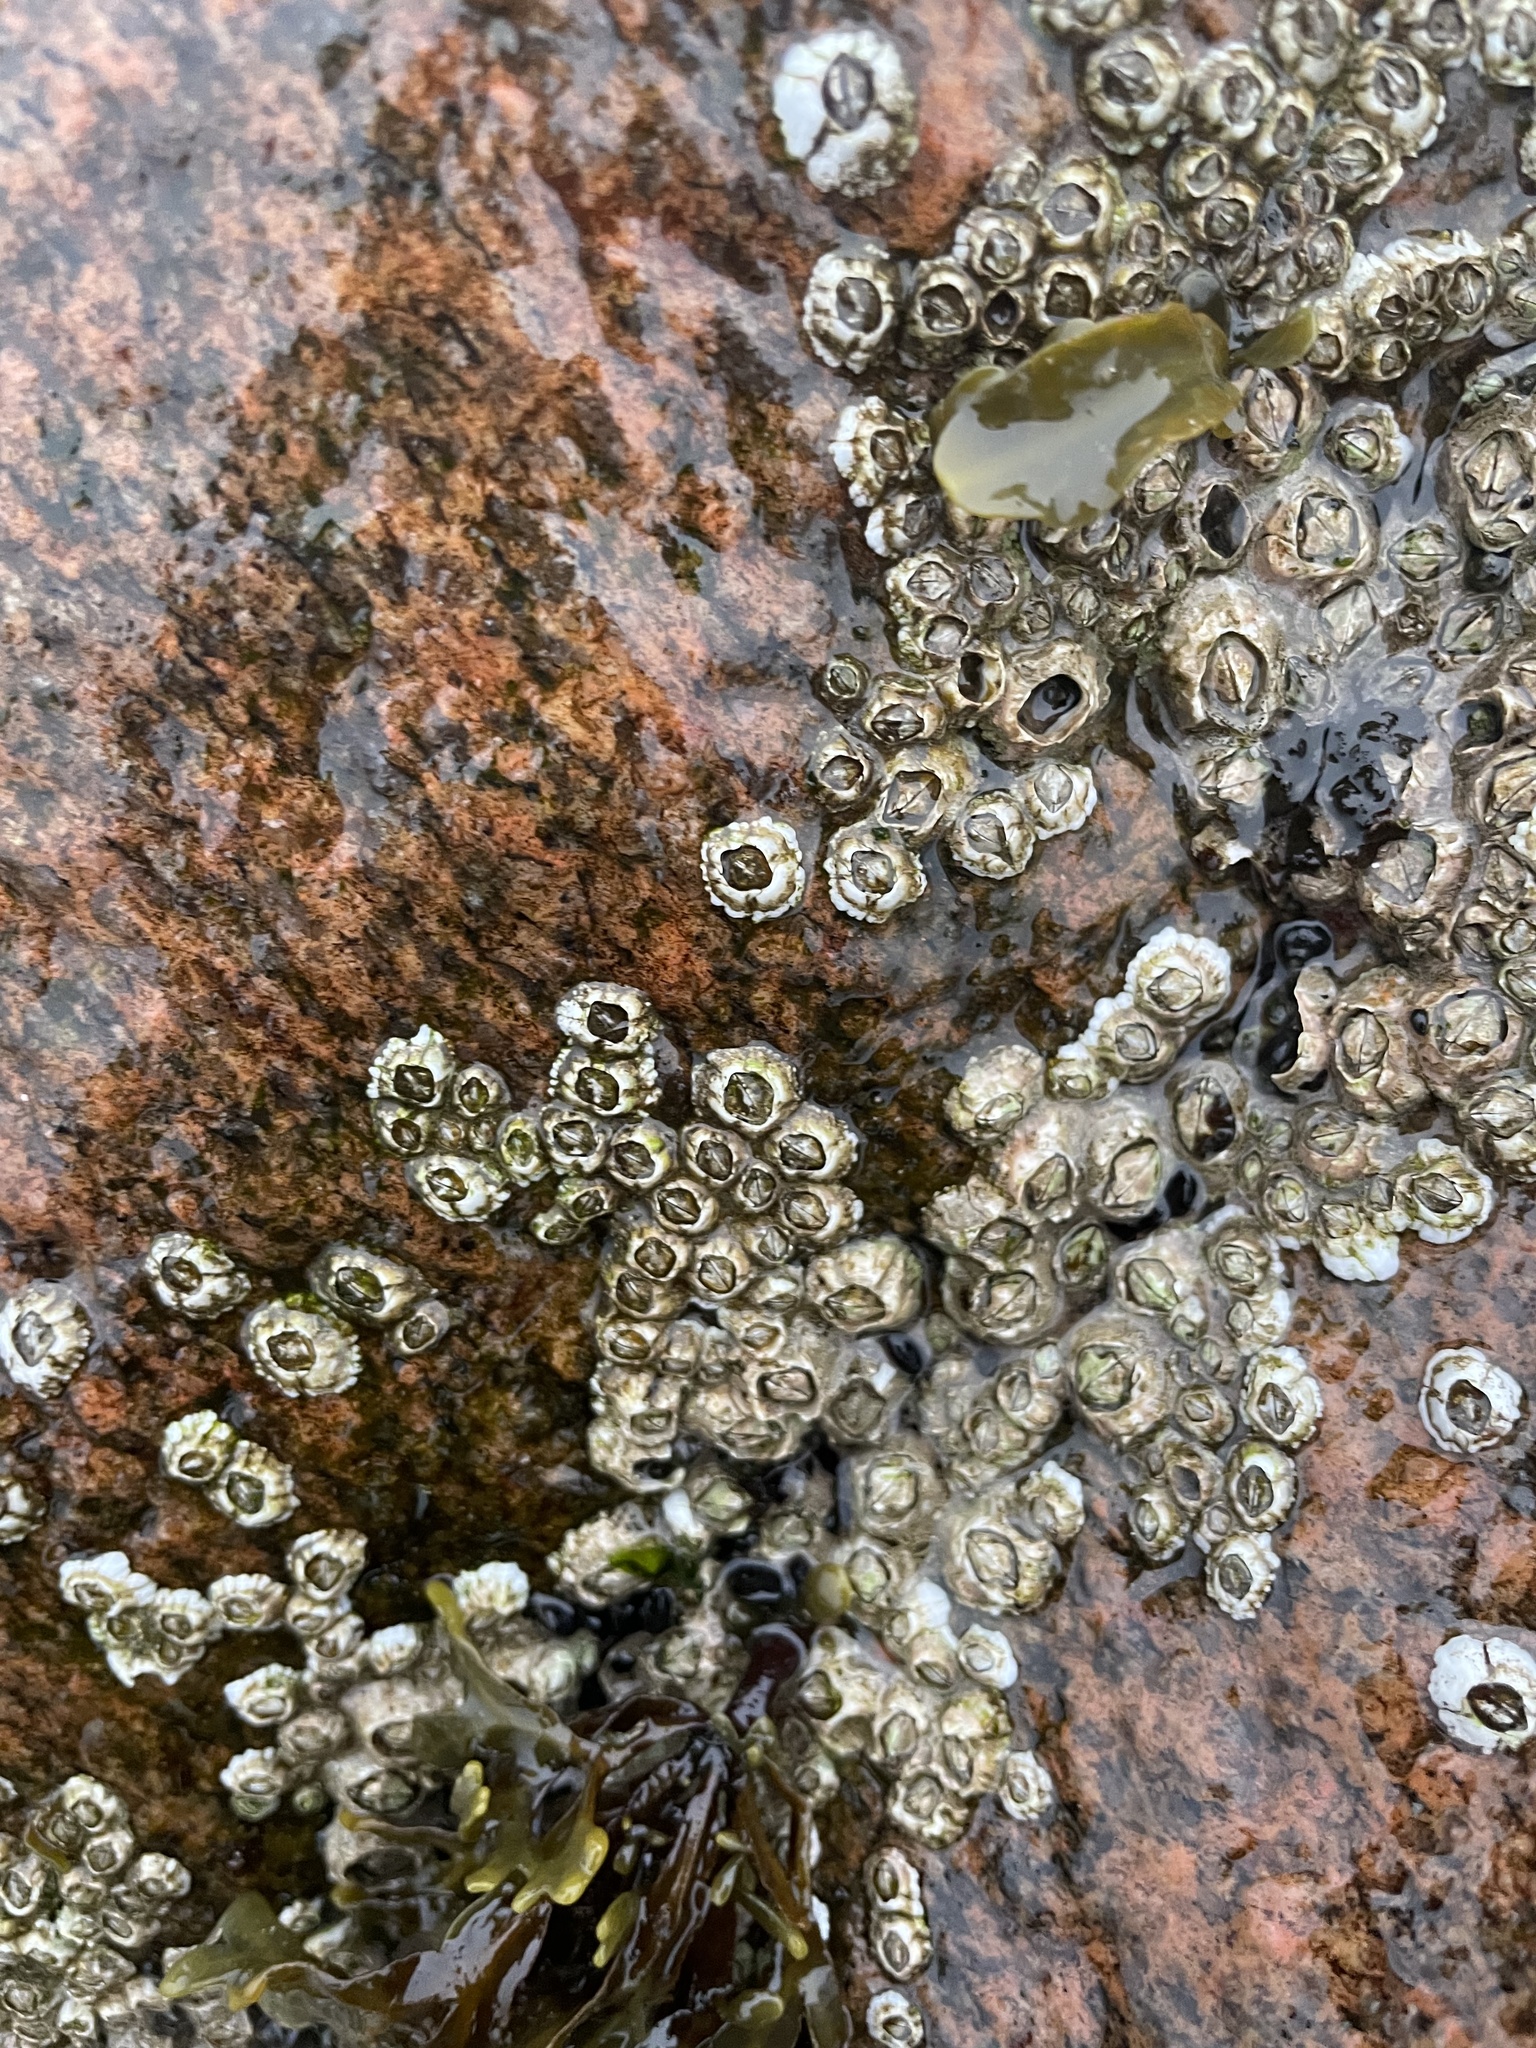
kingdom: Animalia
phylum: Arthropoda
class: Maxillopoda
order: Sessilia
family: Archaeobalanidae
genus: Semibalanus
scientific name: Semibalanus balanoides
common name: Acorn barnacle
